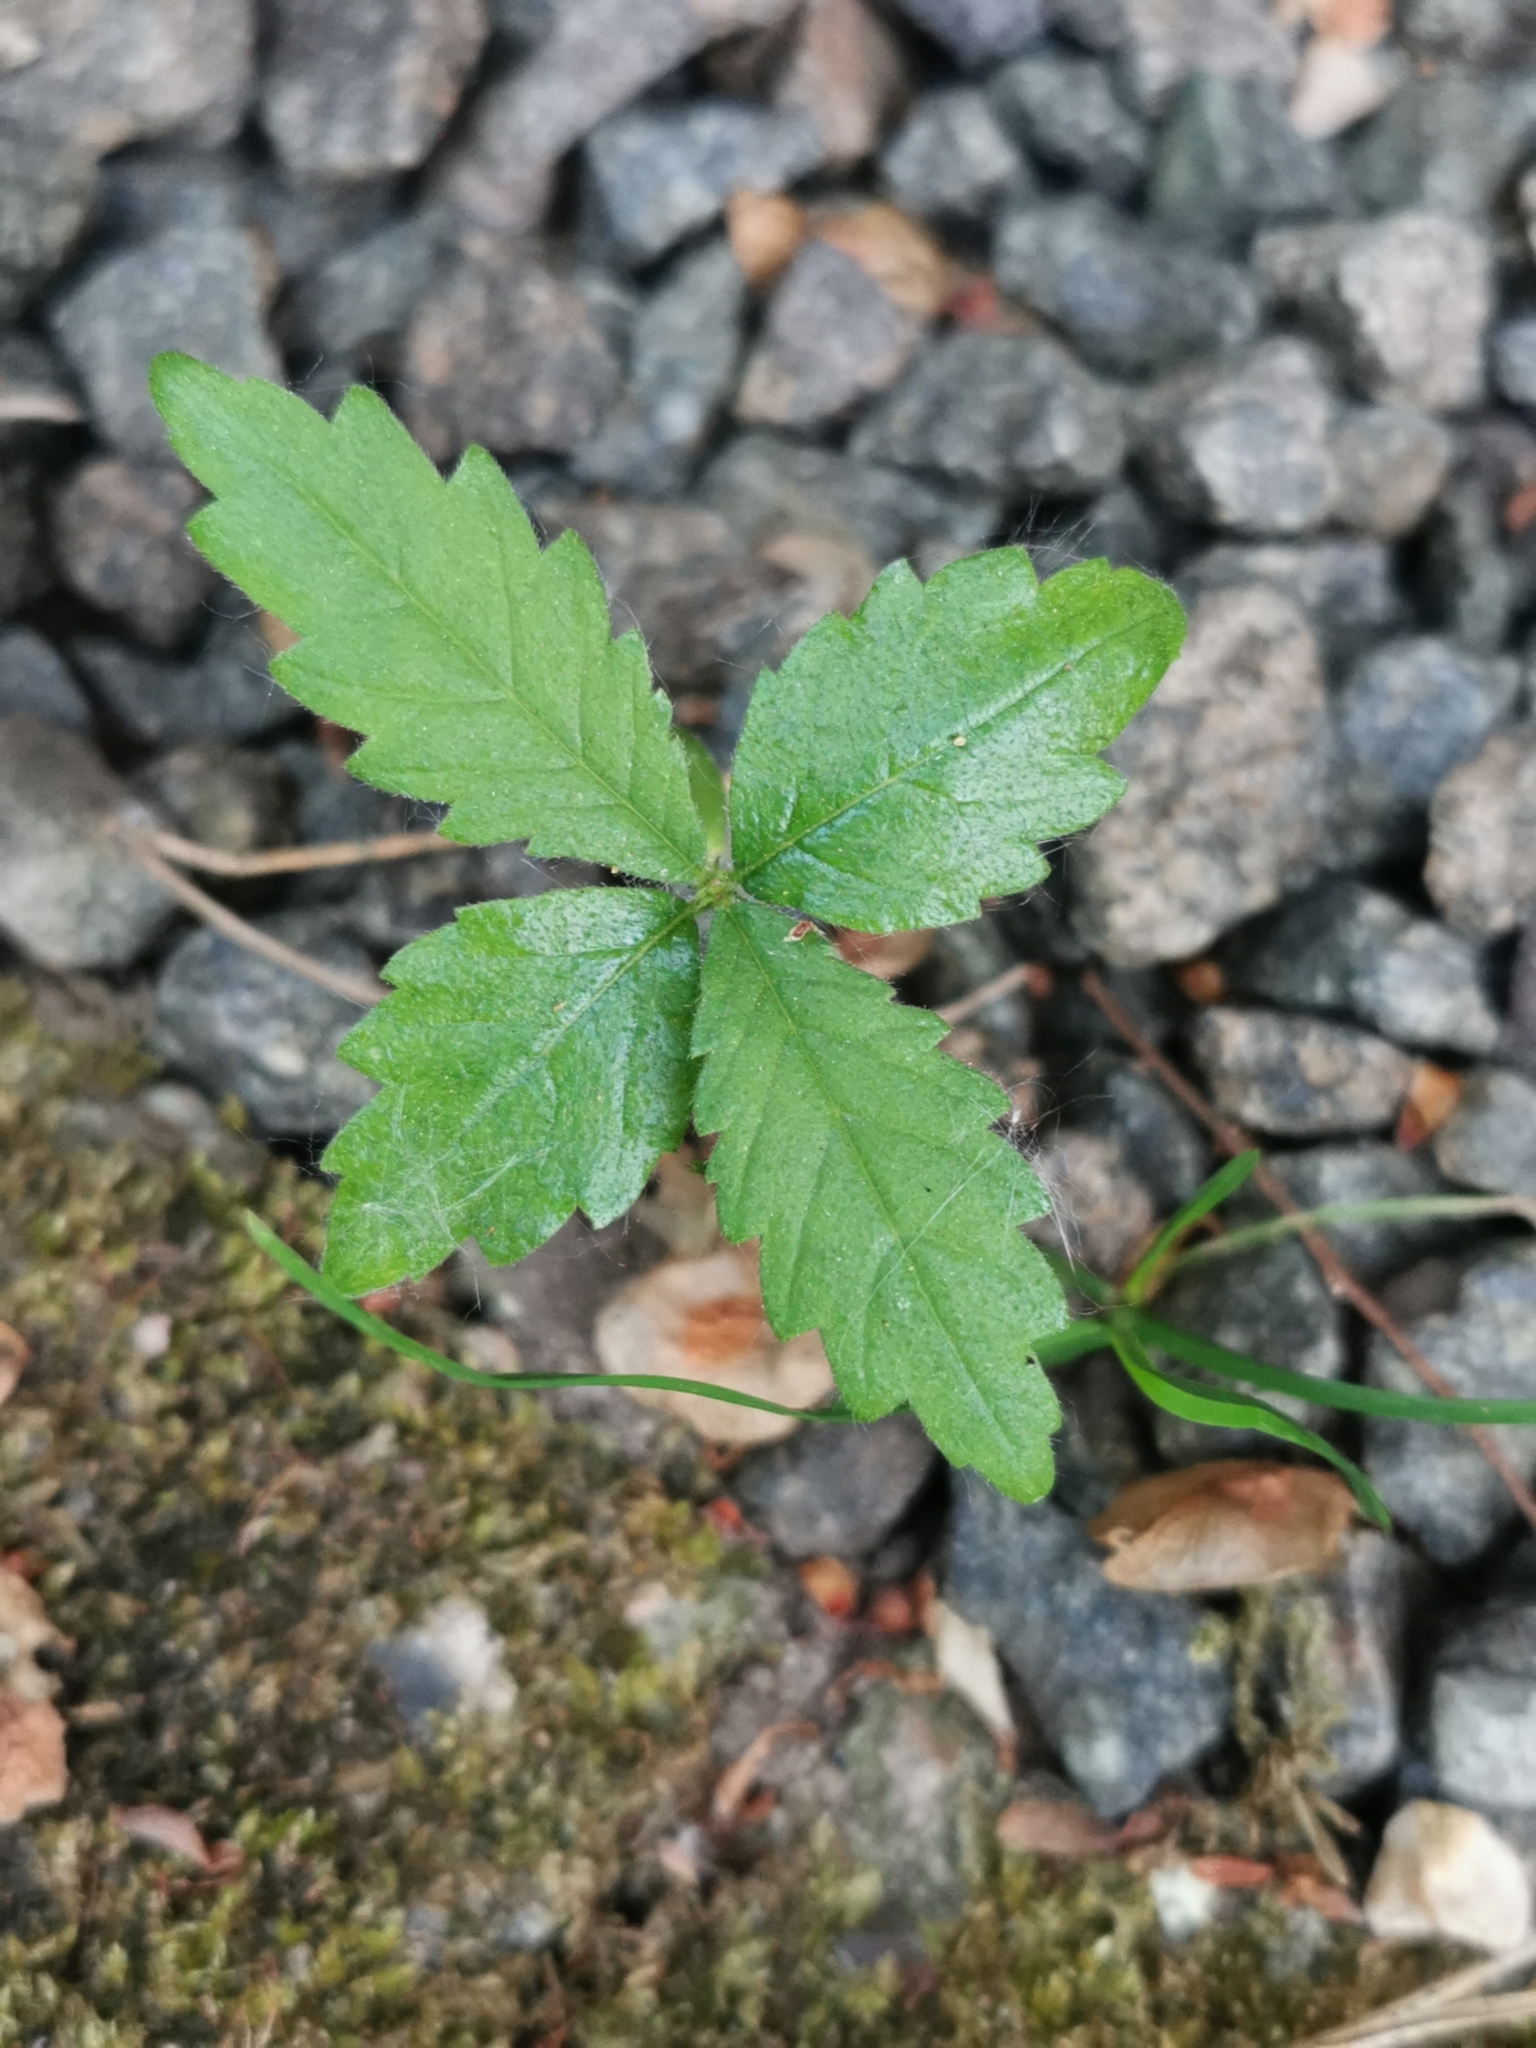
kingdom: Plantae
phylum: Tracheophyta
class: Magnoliopsida
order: Rosales
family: Cannabaceae
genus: Cannabis
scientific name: Cannabis sativa
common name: Hemp
